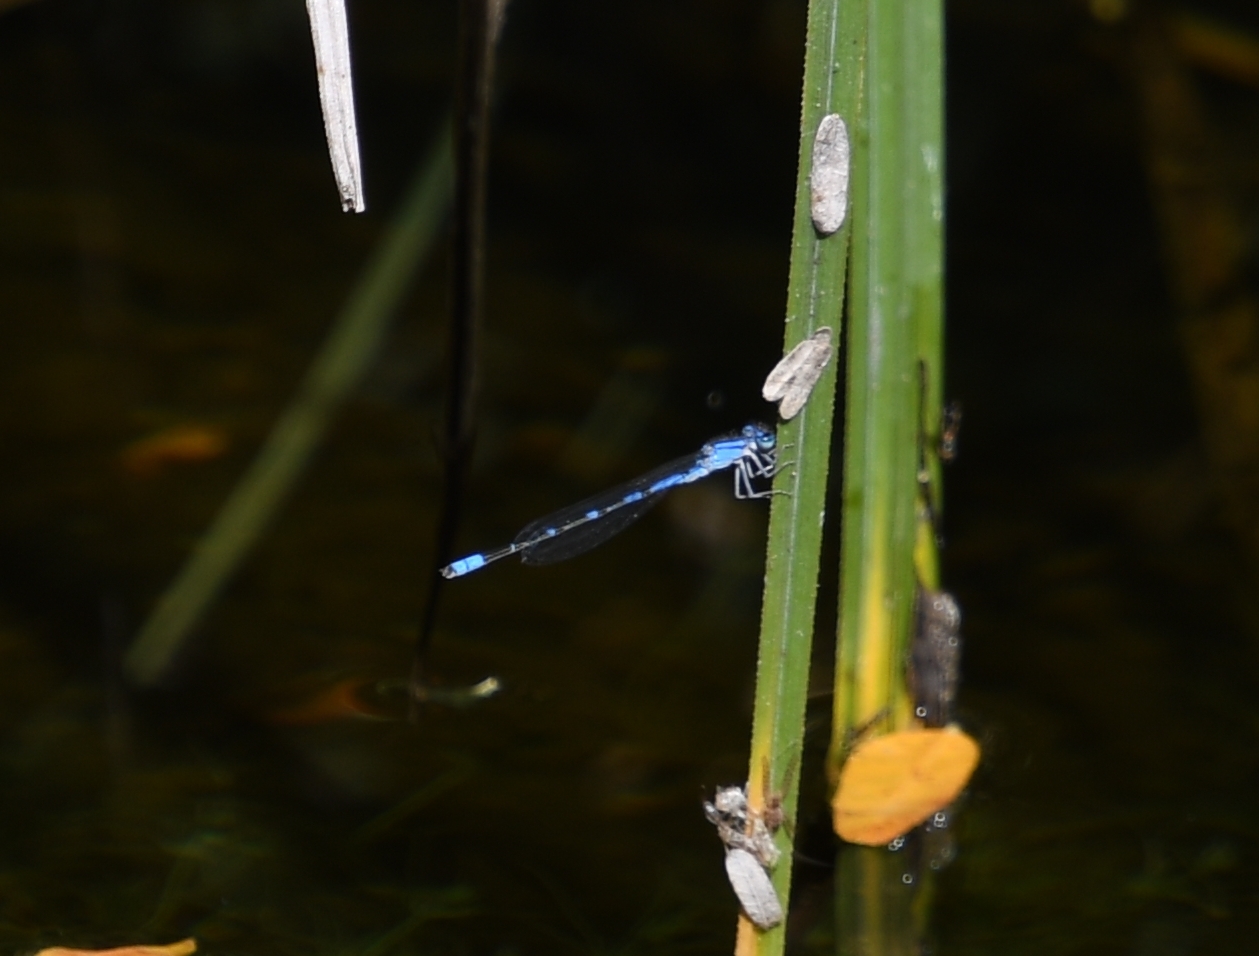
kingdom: Animalia
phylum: Arthropoda
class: Insecta
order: Odonata
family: Coenagrionidae
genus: Enallagma
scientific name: Enallagma praevarum
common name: Arroyo bluet
